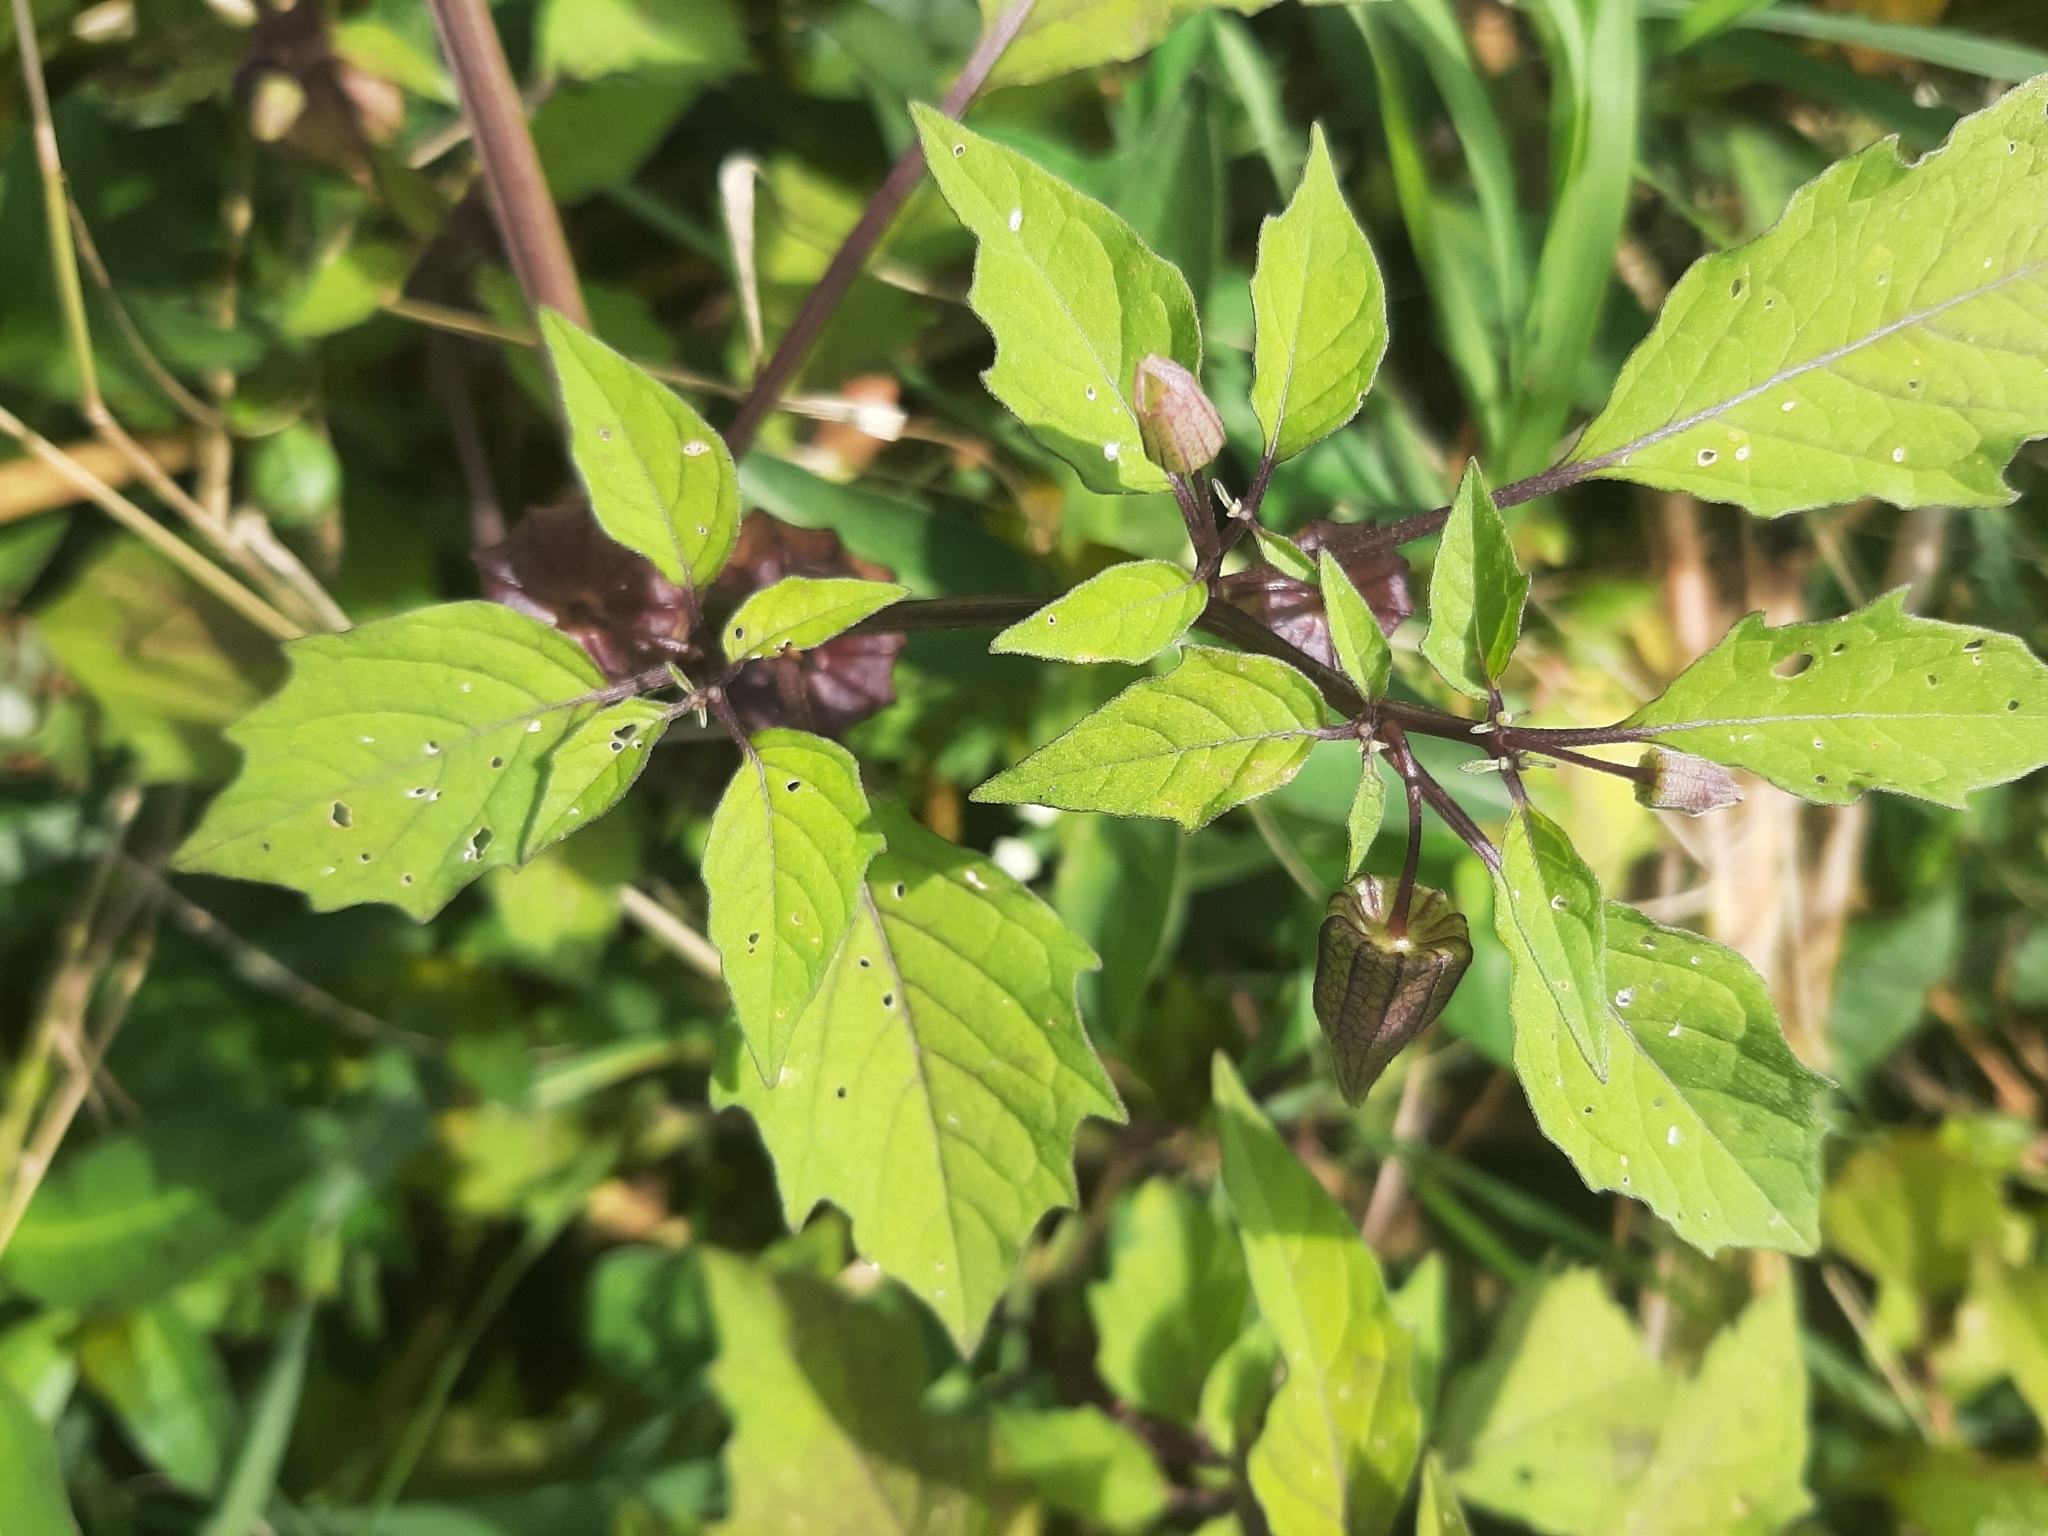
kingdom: Plantae
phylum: Tracheophyta
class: Magnoliopsida
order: Solanales
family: Solanaceae
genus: Physalis
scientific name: Physalis angulata
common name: Angular winter-cherry
